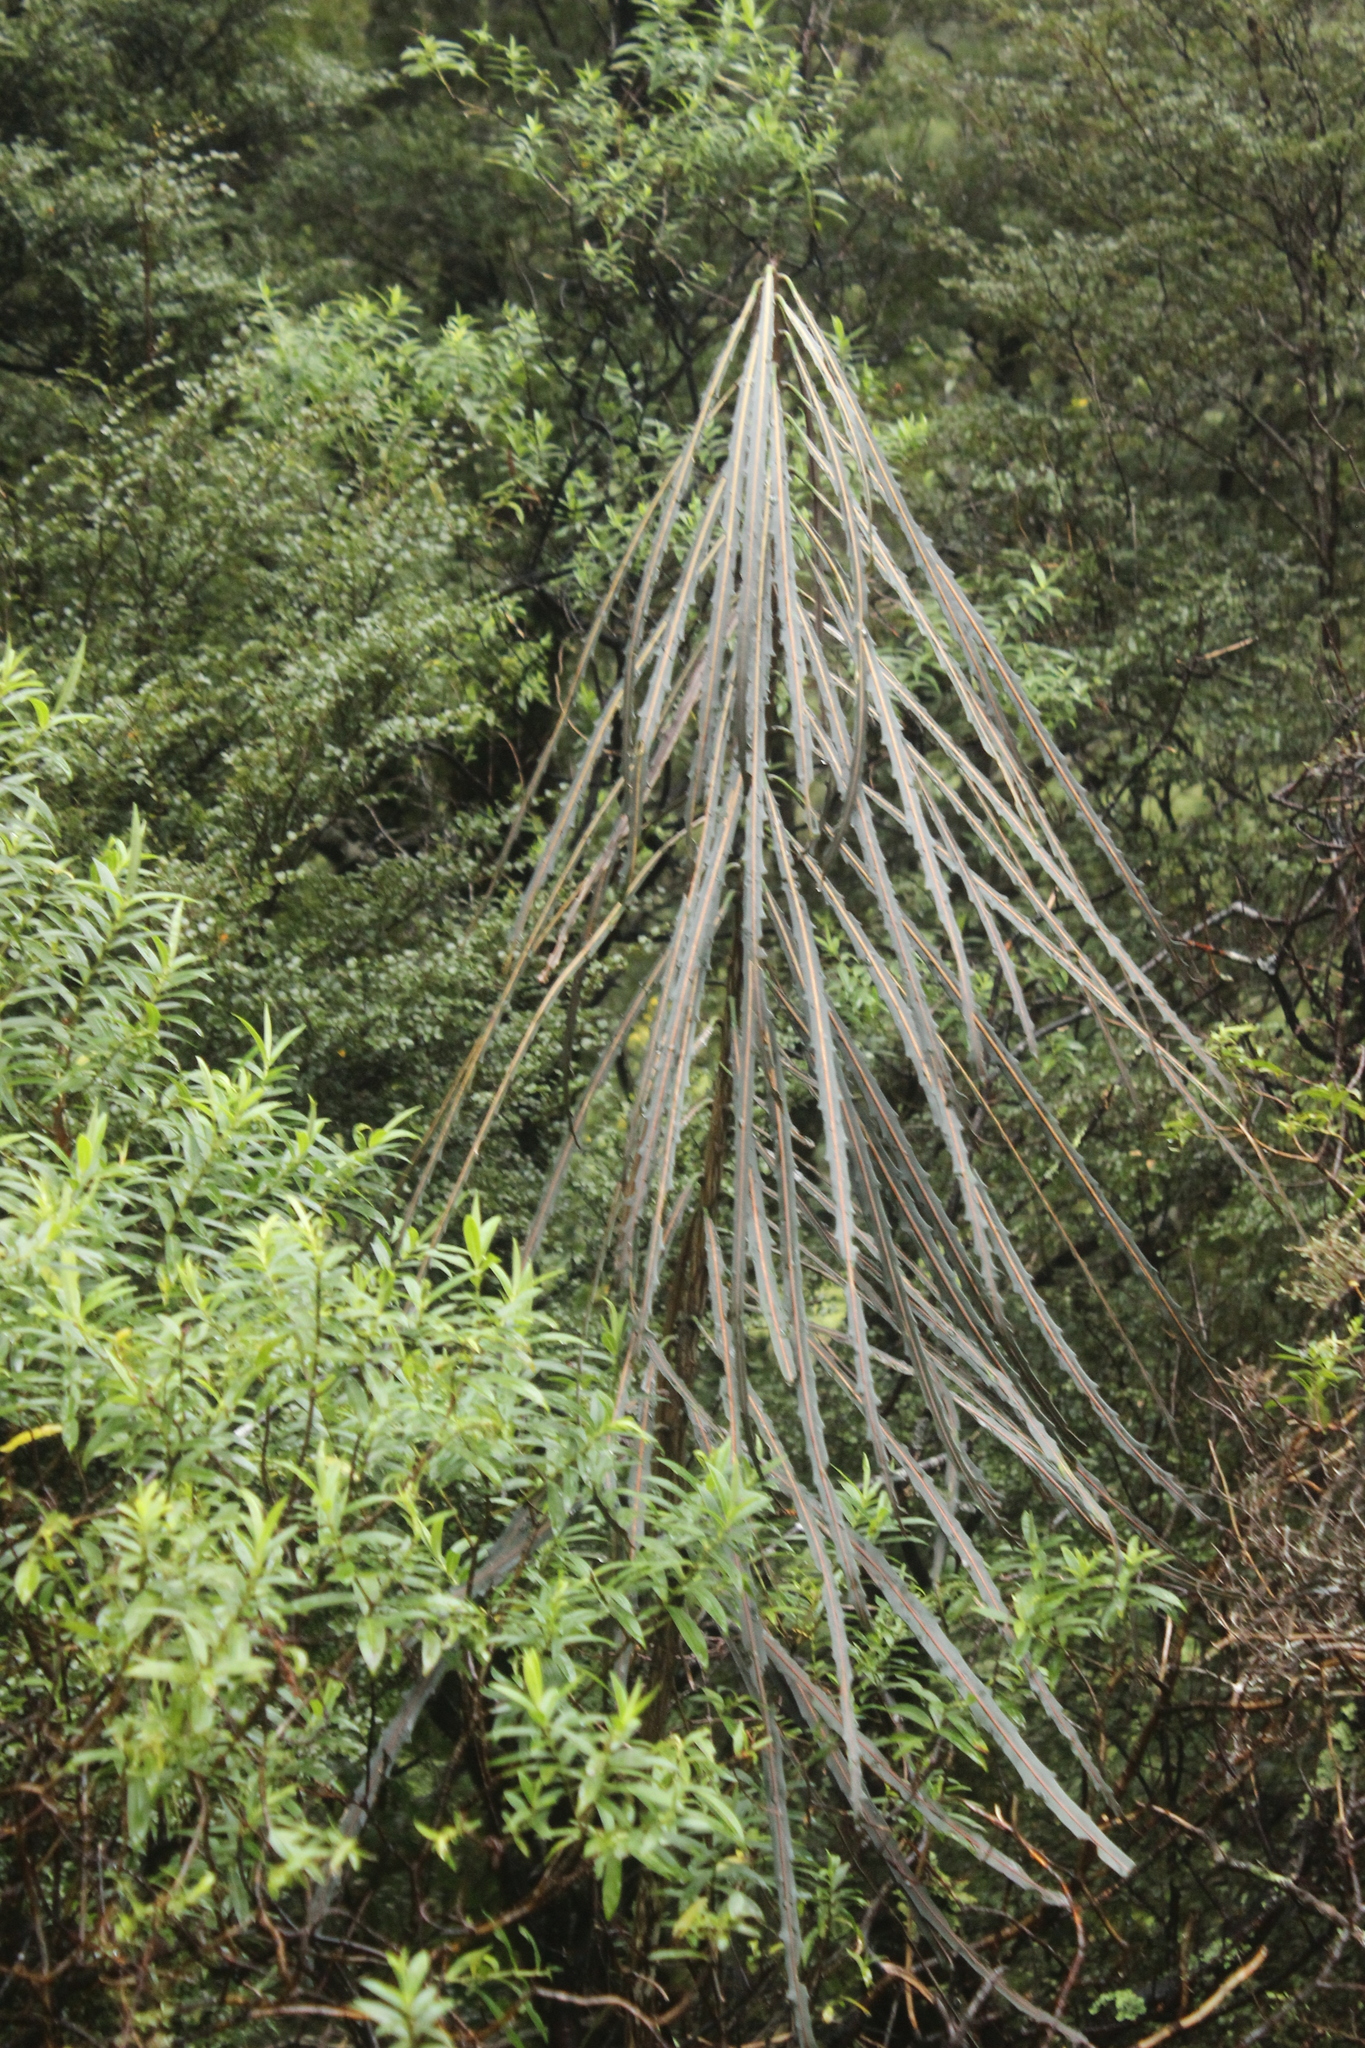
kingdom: Plantae
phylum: Tracheophyta
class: Magnoliopsida
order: Apiales
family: Araliaceae
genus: Pseudopanax
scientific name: Pseudopanax crassifolius
